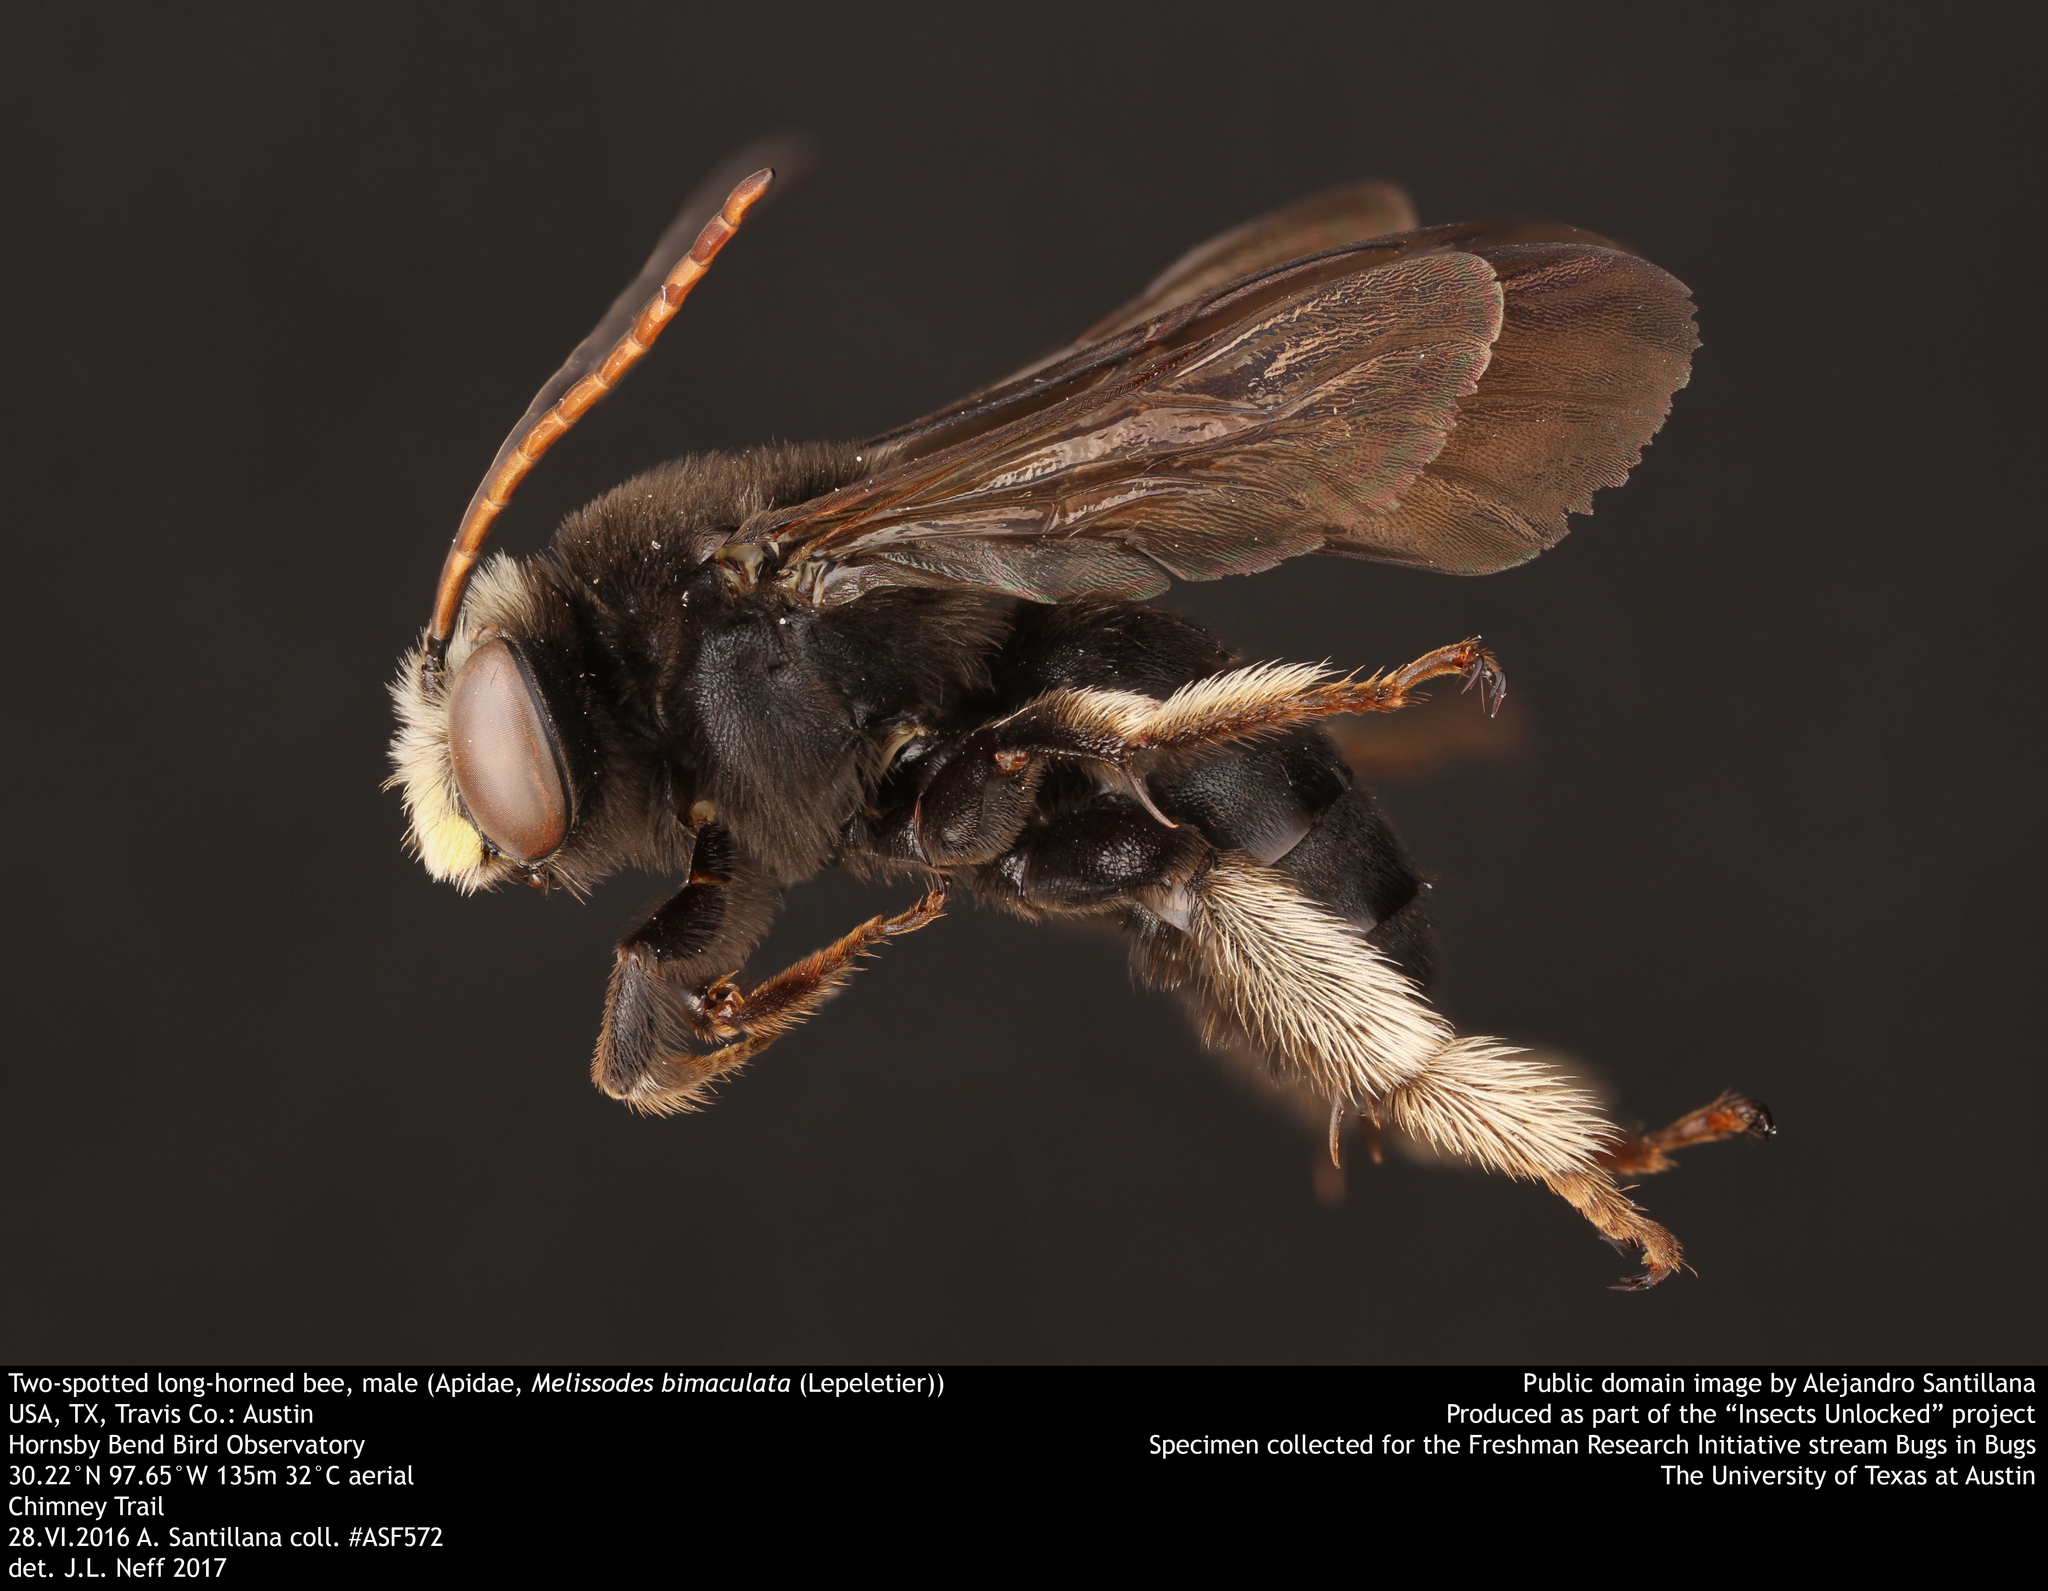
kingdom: Animalia
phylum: Arthropoda
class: Insecta
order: Hymenoptera
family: Apidae
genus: Melissodes
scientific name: Melissodes bimaculatus
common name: Two-spotted long-horned bee
